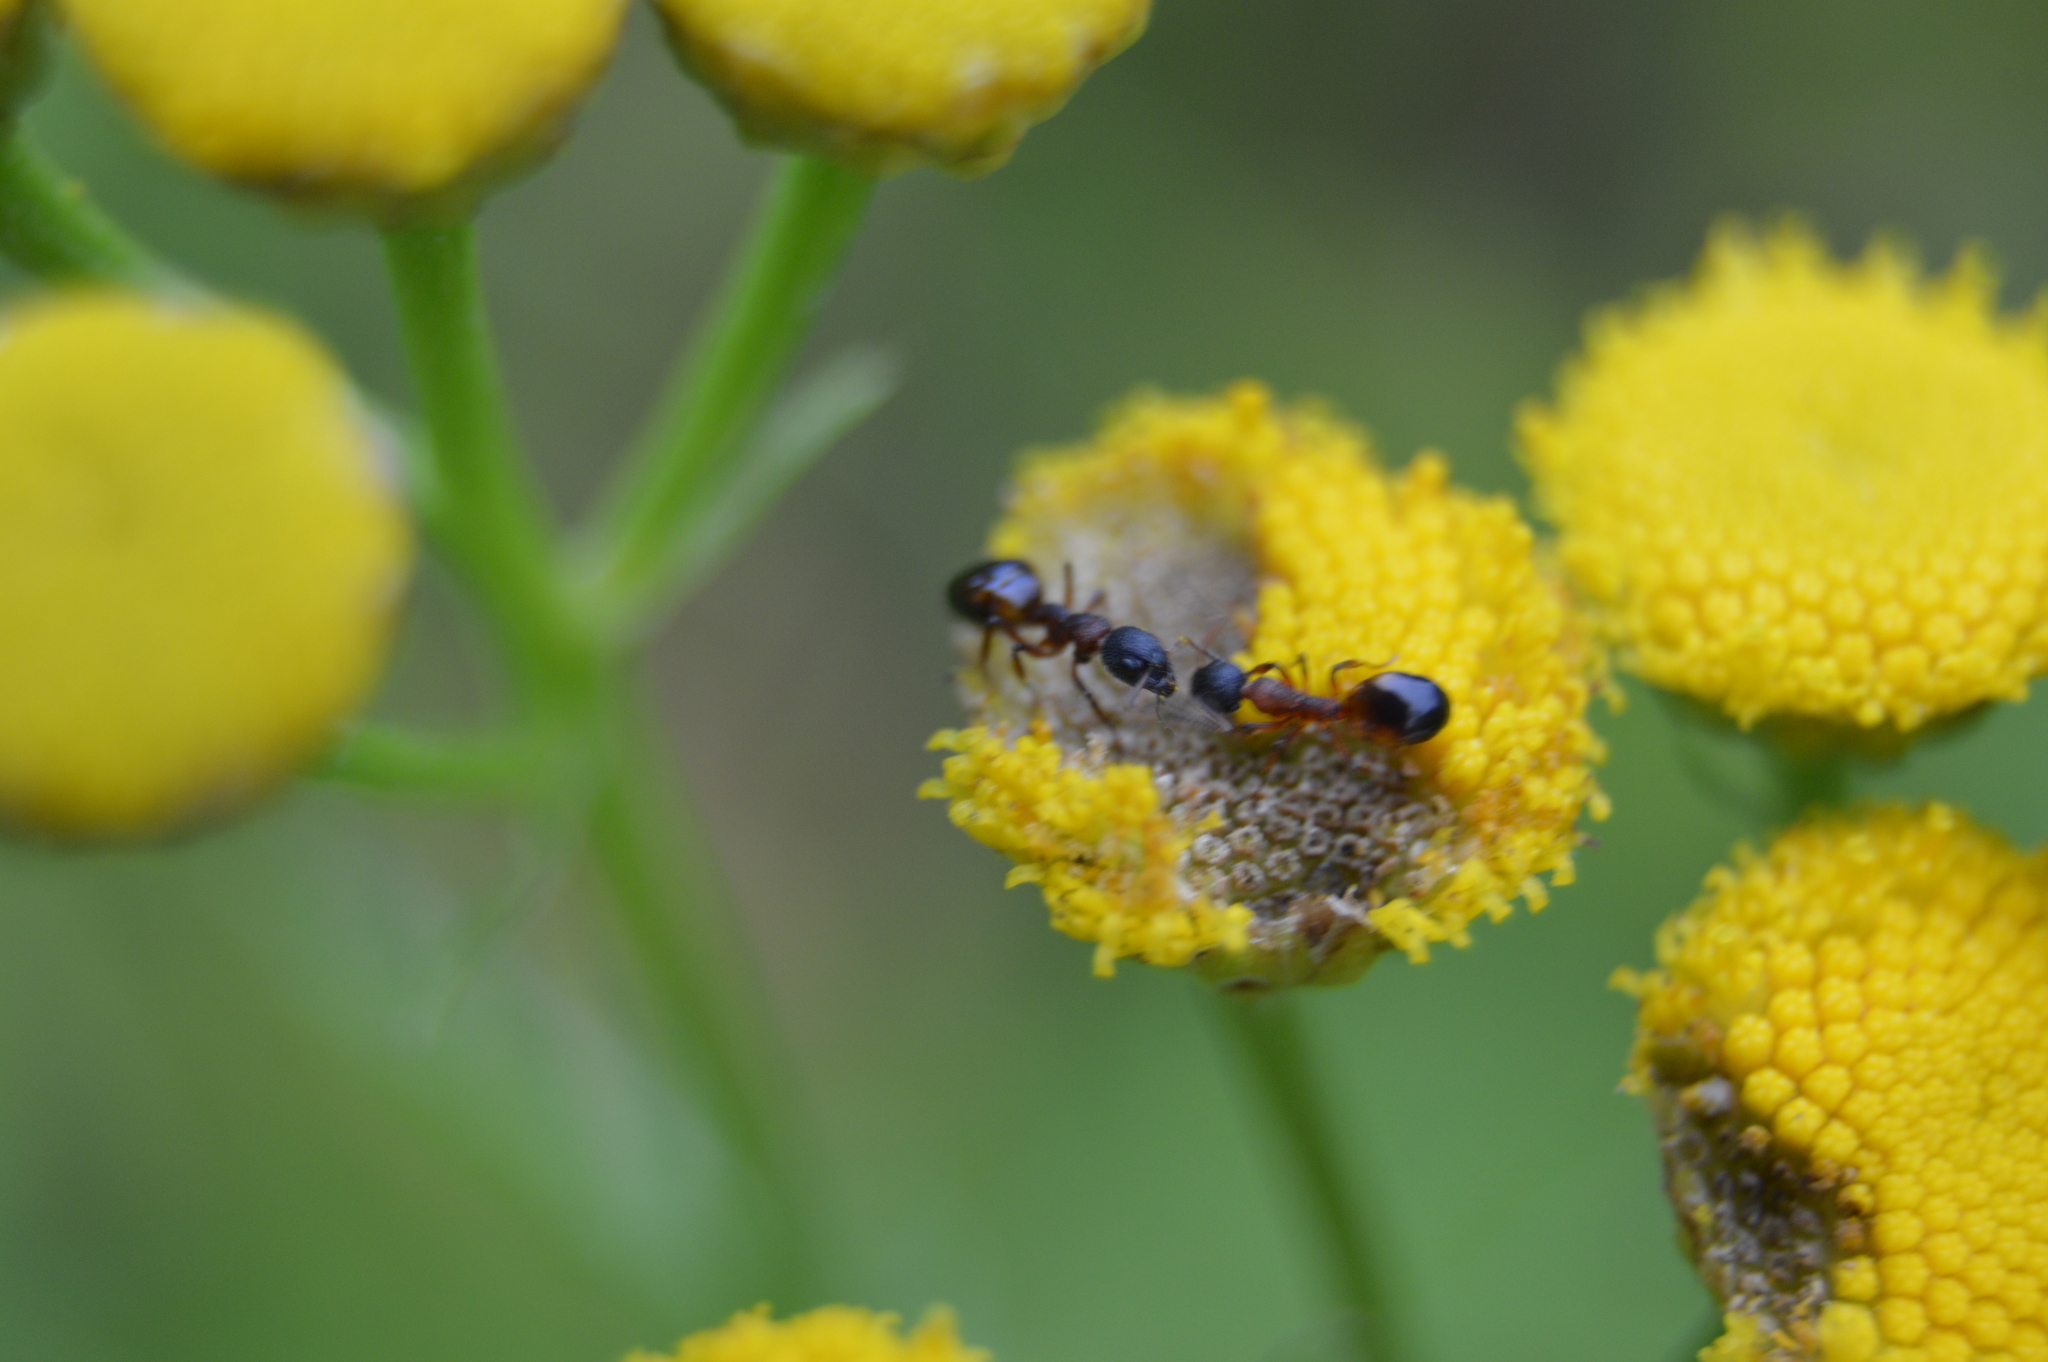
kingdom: Animalia
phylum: Arthropoda
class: Insecta
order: Hymenoptera
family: Formicidae
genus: Dolichoderus
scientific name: Dolichoderus plagiatus
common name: Mottled dolichoderus
